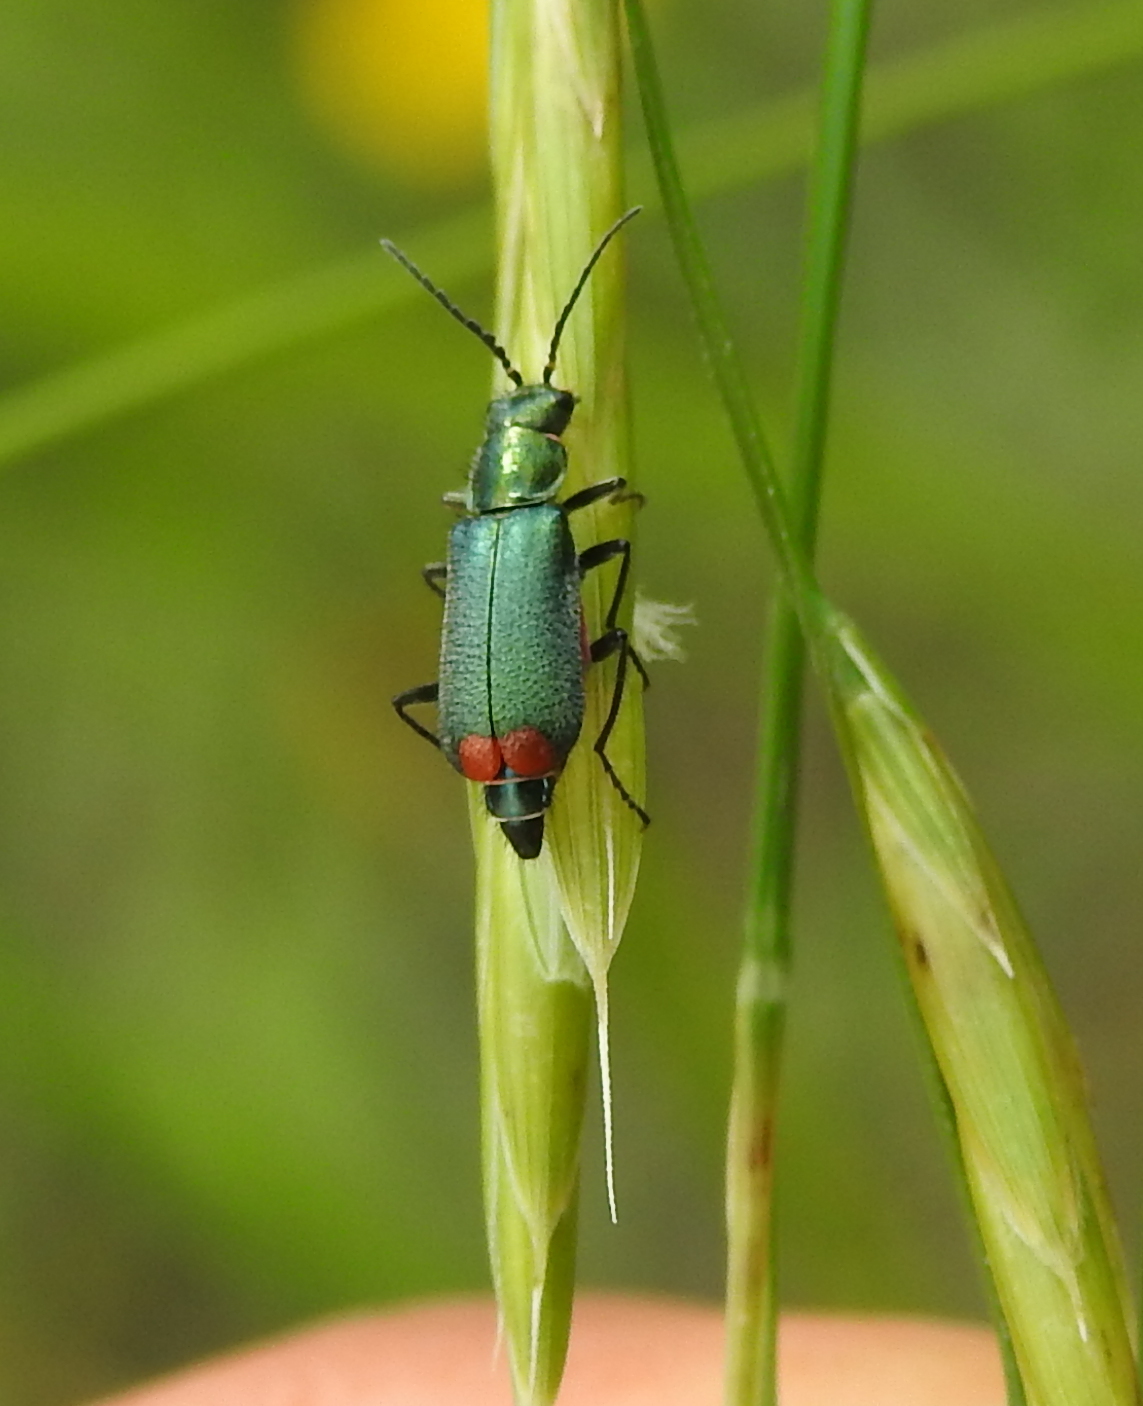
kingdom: Animalia
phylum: Arthropoda
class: Insecta
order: Coleoptera
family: Melyridae
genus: Malachius
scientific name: Malachius australis
